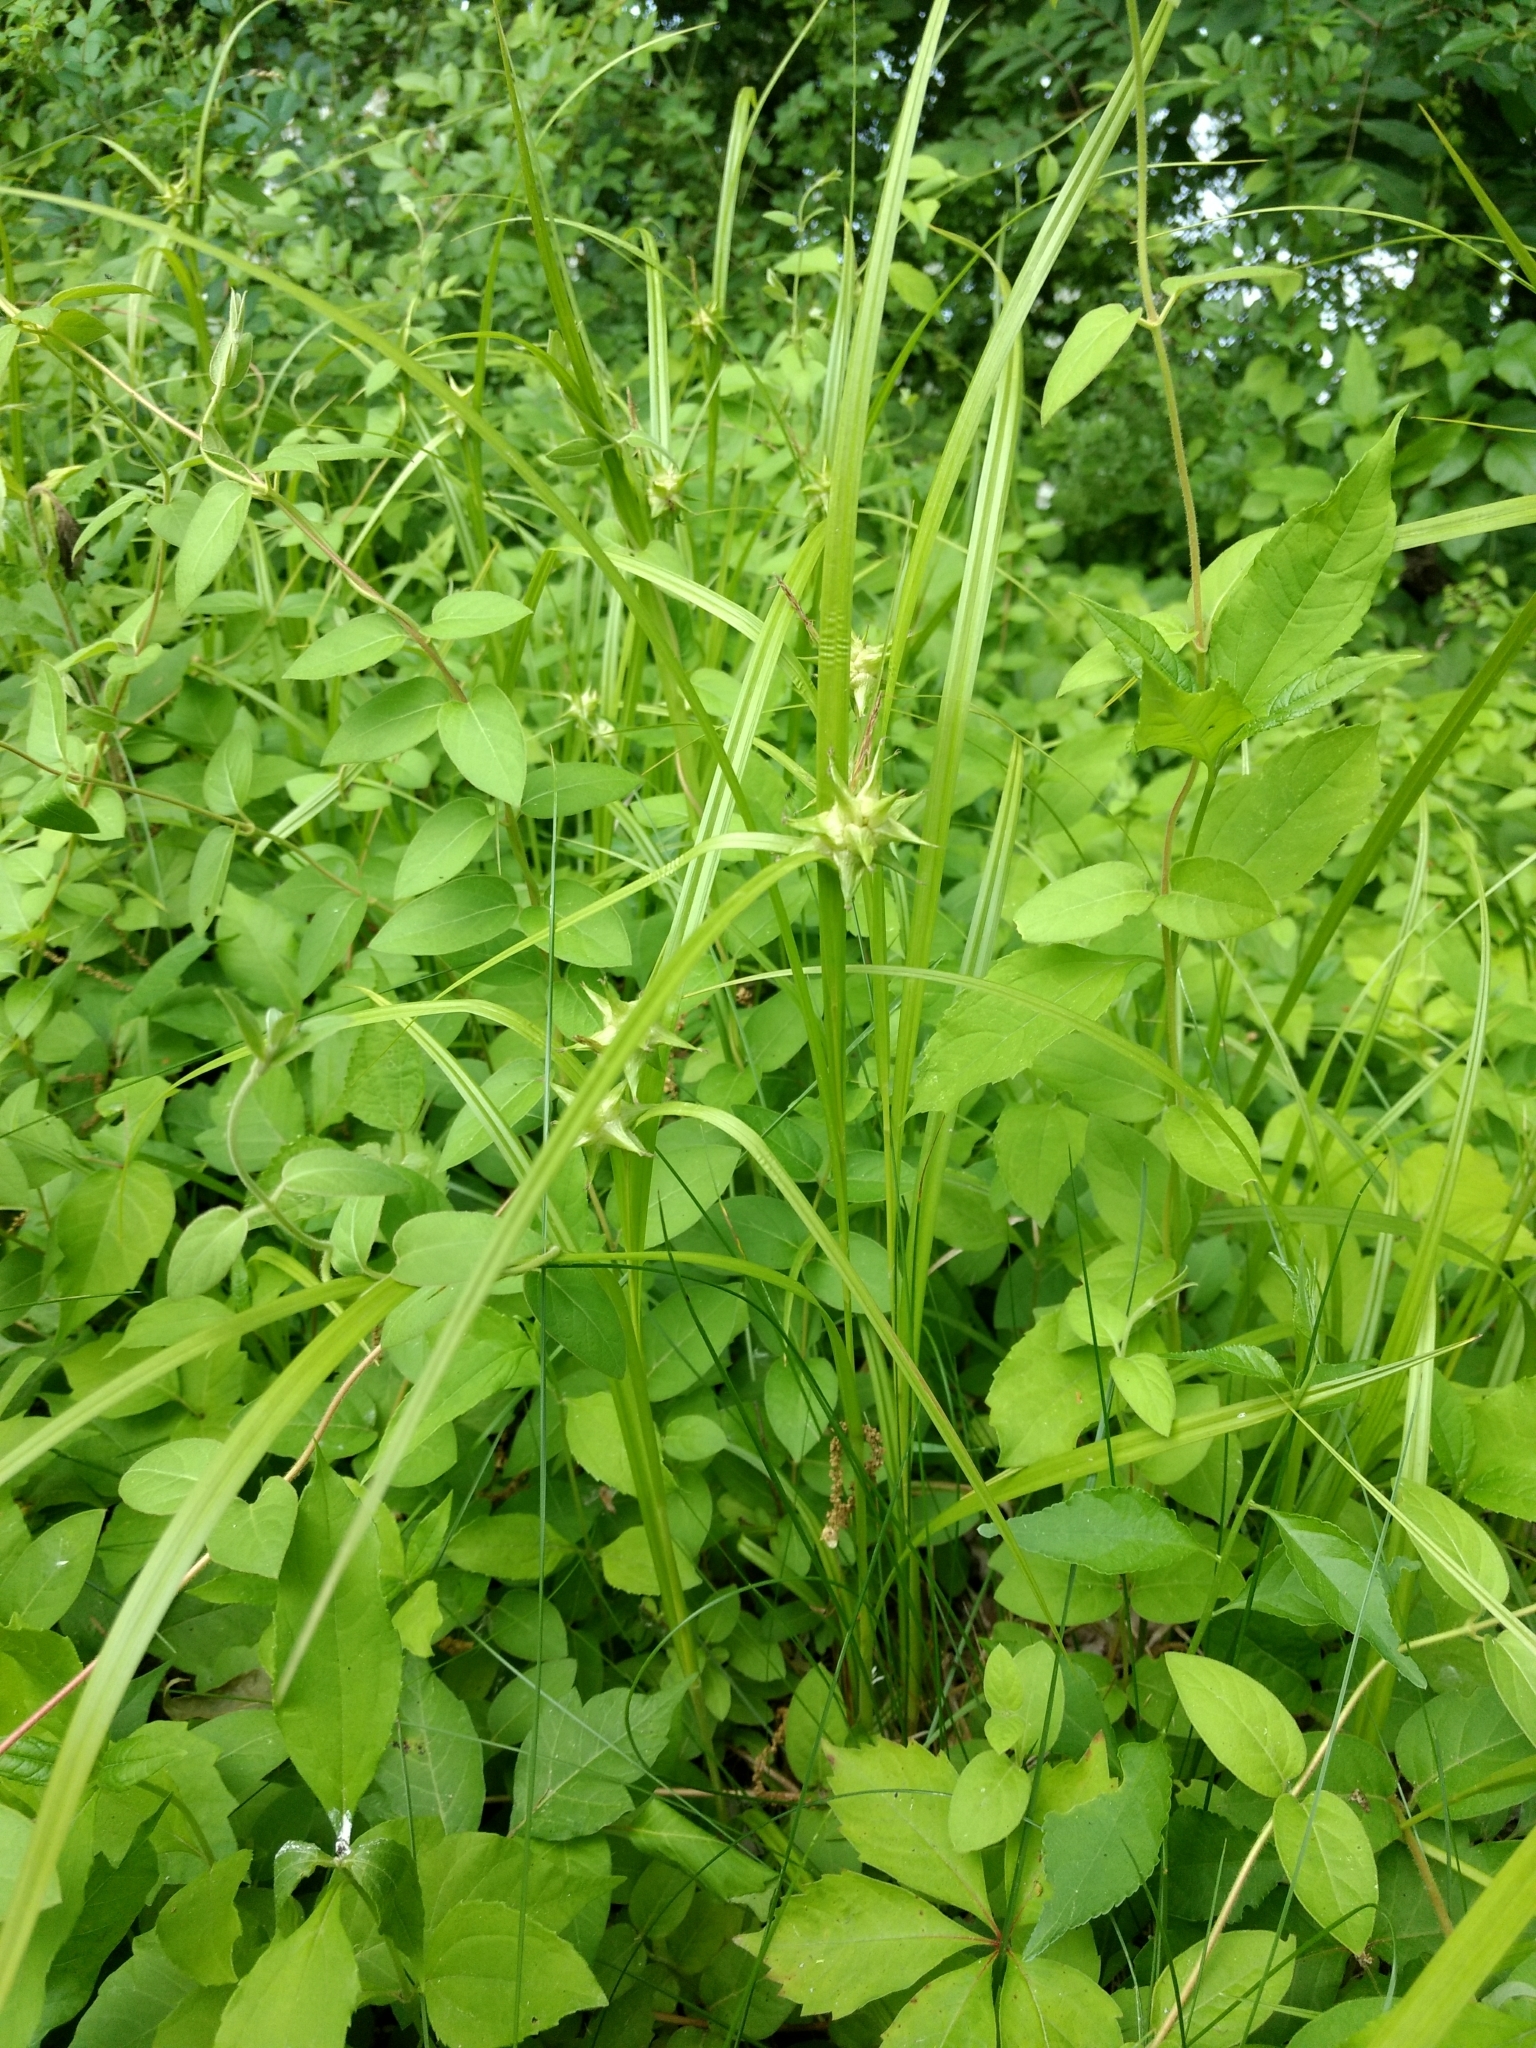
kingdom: Plantae
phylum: Tracheophyta
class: Liliopsida
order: Poales
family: Cyperaceae
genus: Carex
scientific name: Carex grayi
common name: Asa gray's sedge
